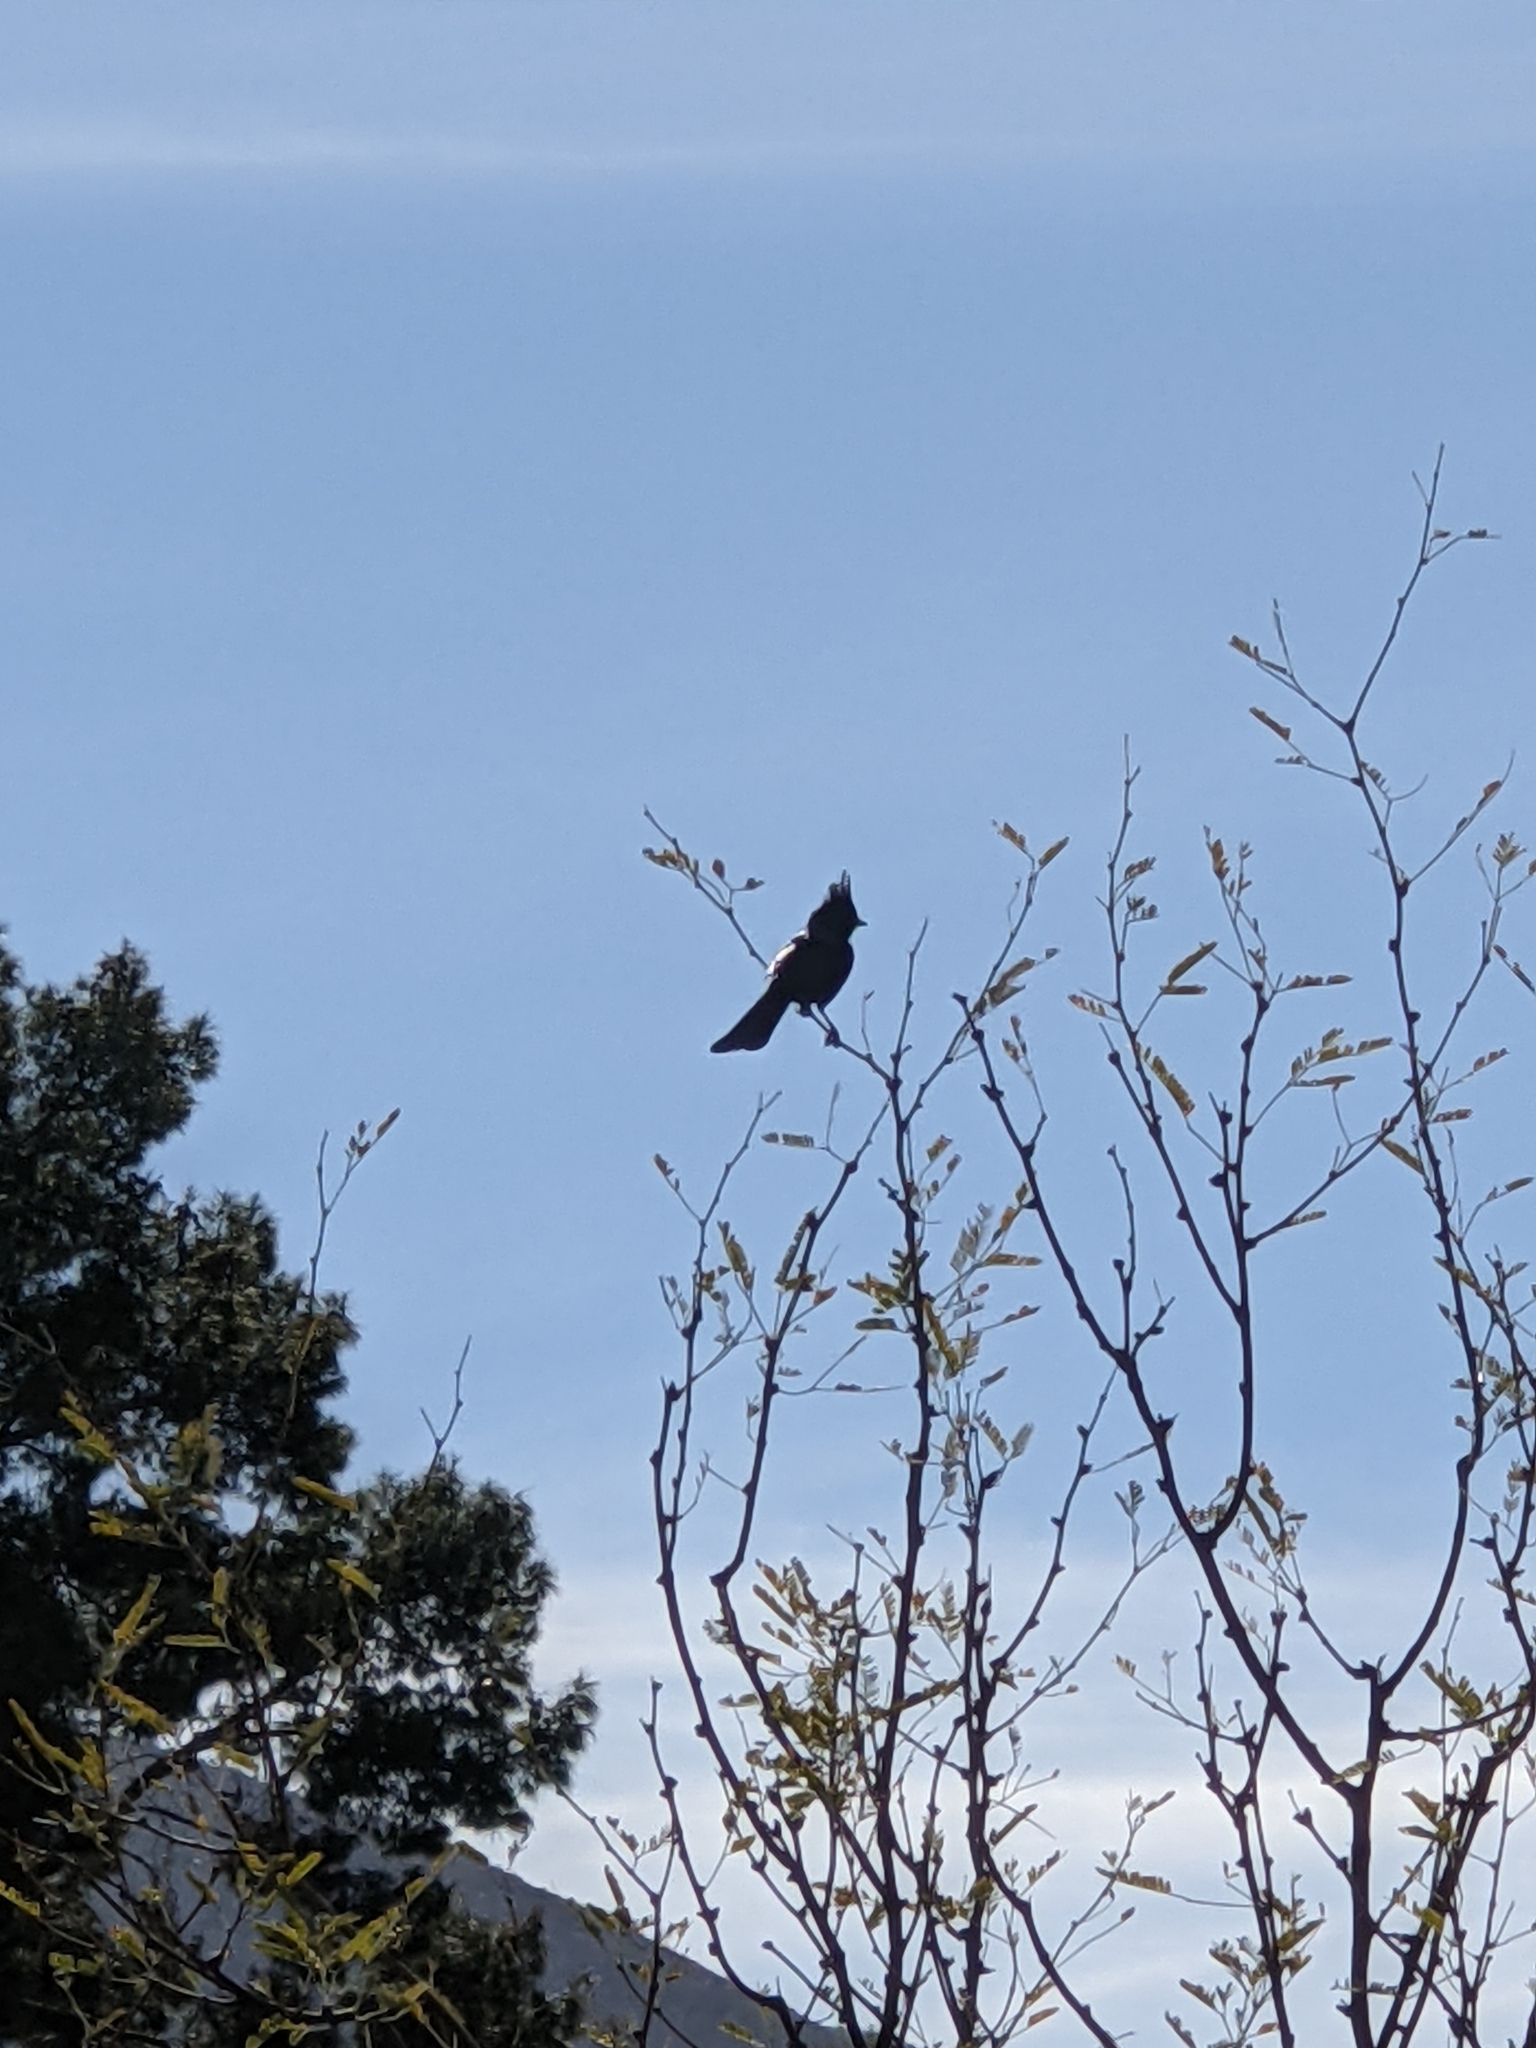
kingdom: Animalia
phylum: Chordata
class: Aves
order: Passeriformes
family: Ptilogonatidae
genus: Phainopepla
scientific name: Phainopepla nitens
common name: Phainopepla
